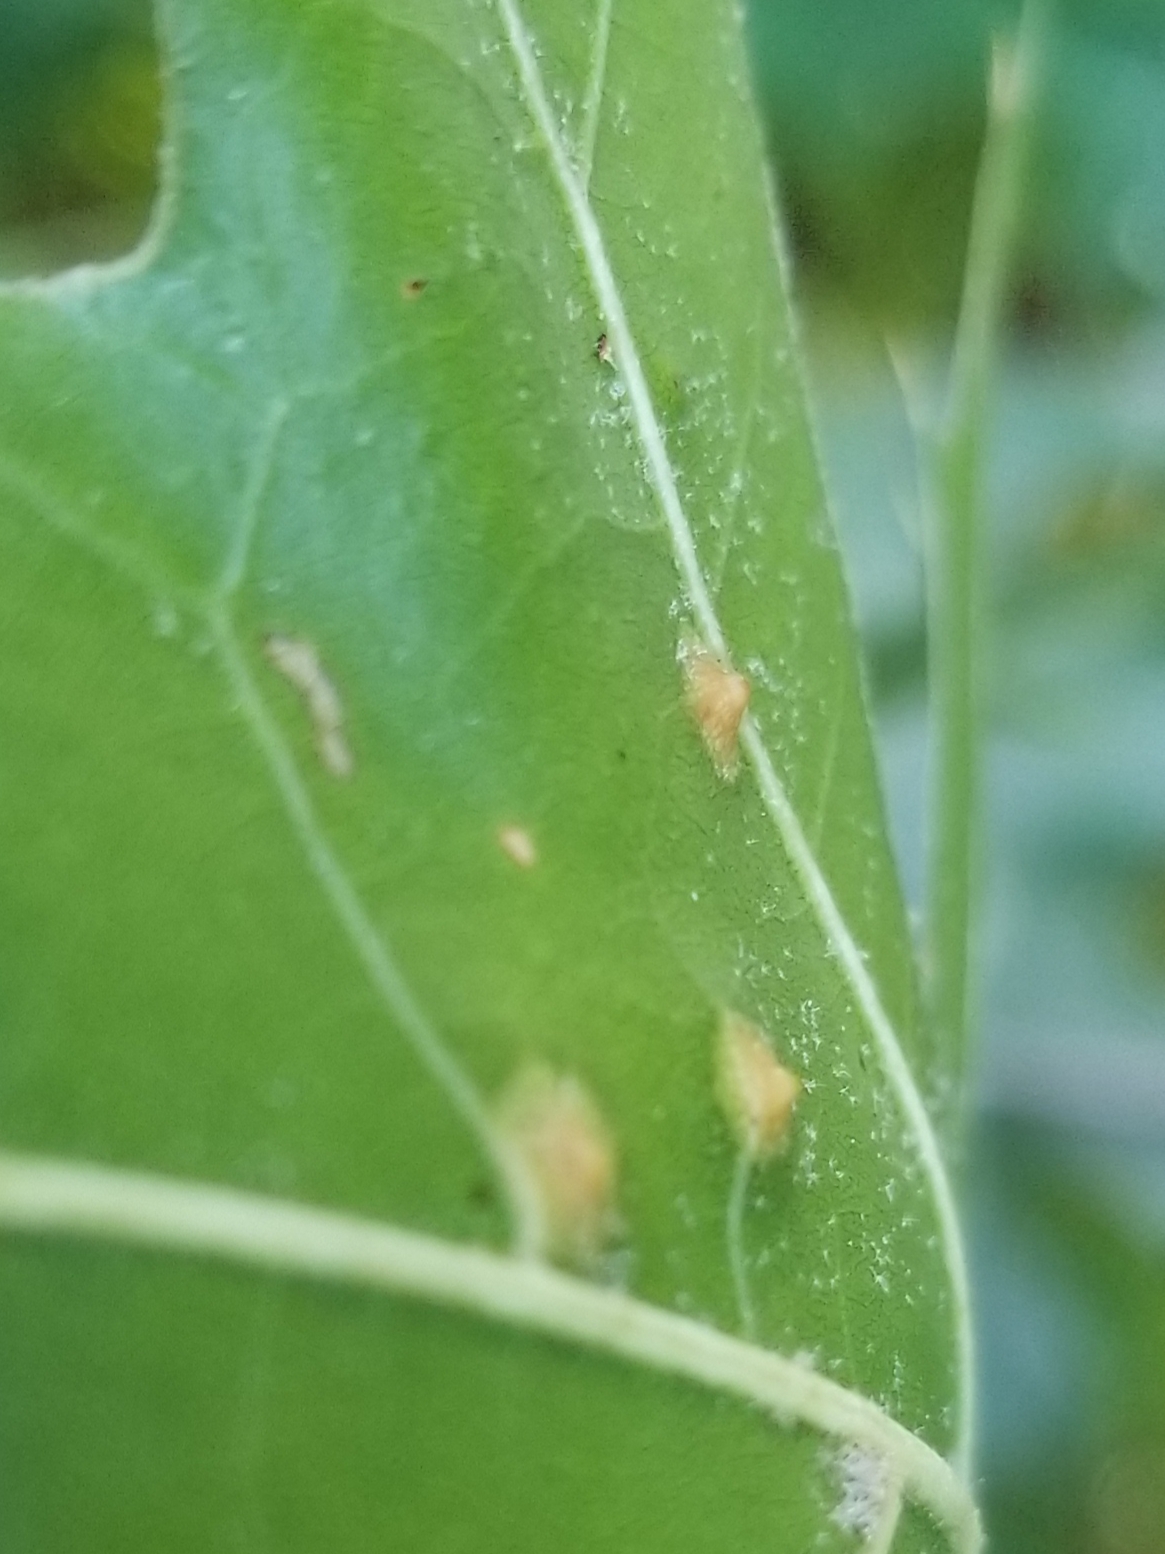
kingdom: Animalia
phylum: Arthropoda
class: Insecta
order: Diptera
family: Cecidomyiidae
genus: Polystepha
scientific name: Polystepha pilulae
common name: Oak leaf gall midge
